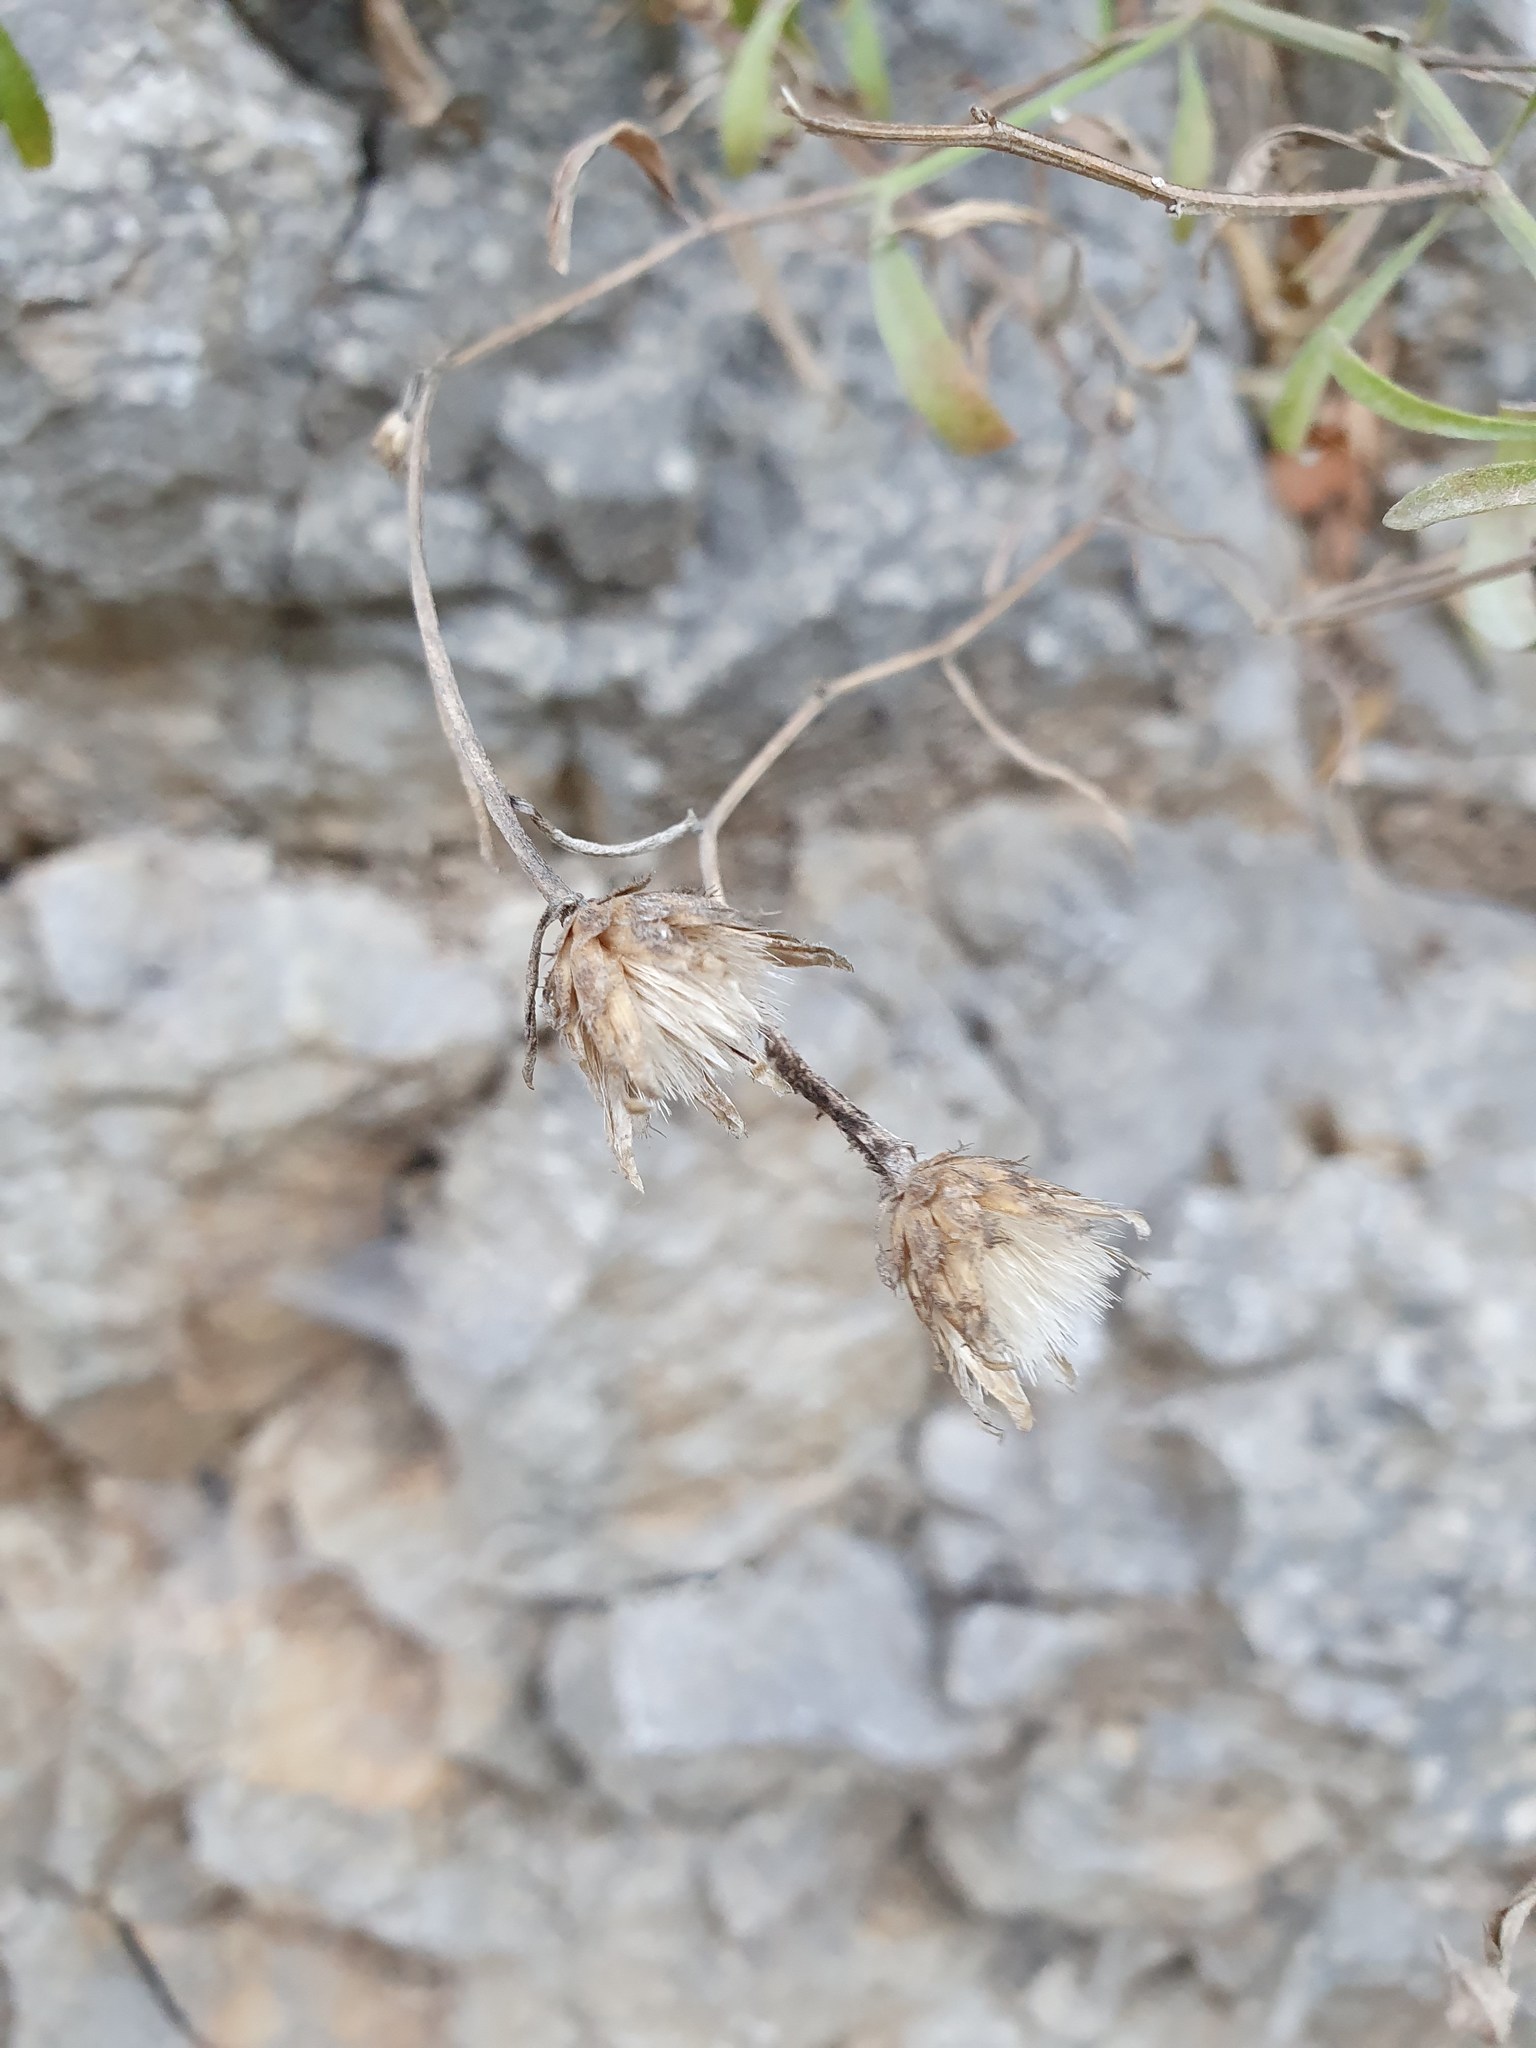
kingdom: Plantae
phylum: Tracheophyta
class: Magnoliopsida
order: Asterales
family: Asteraceae
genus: Centaurea
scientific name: Centaurea derventana
